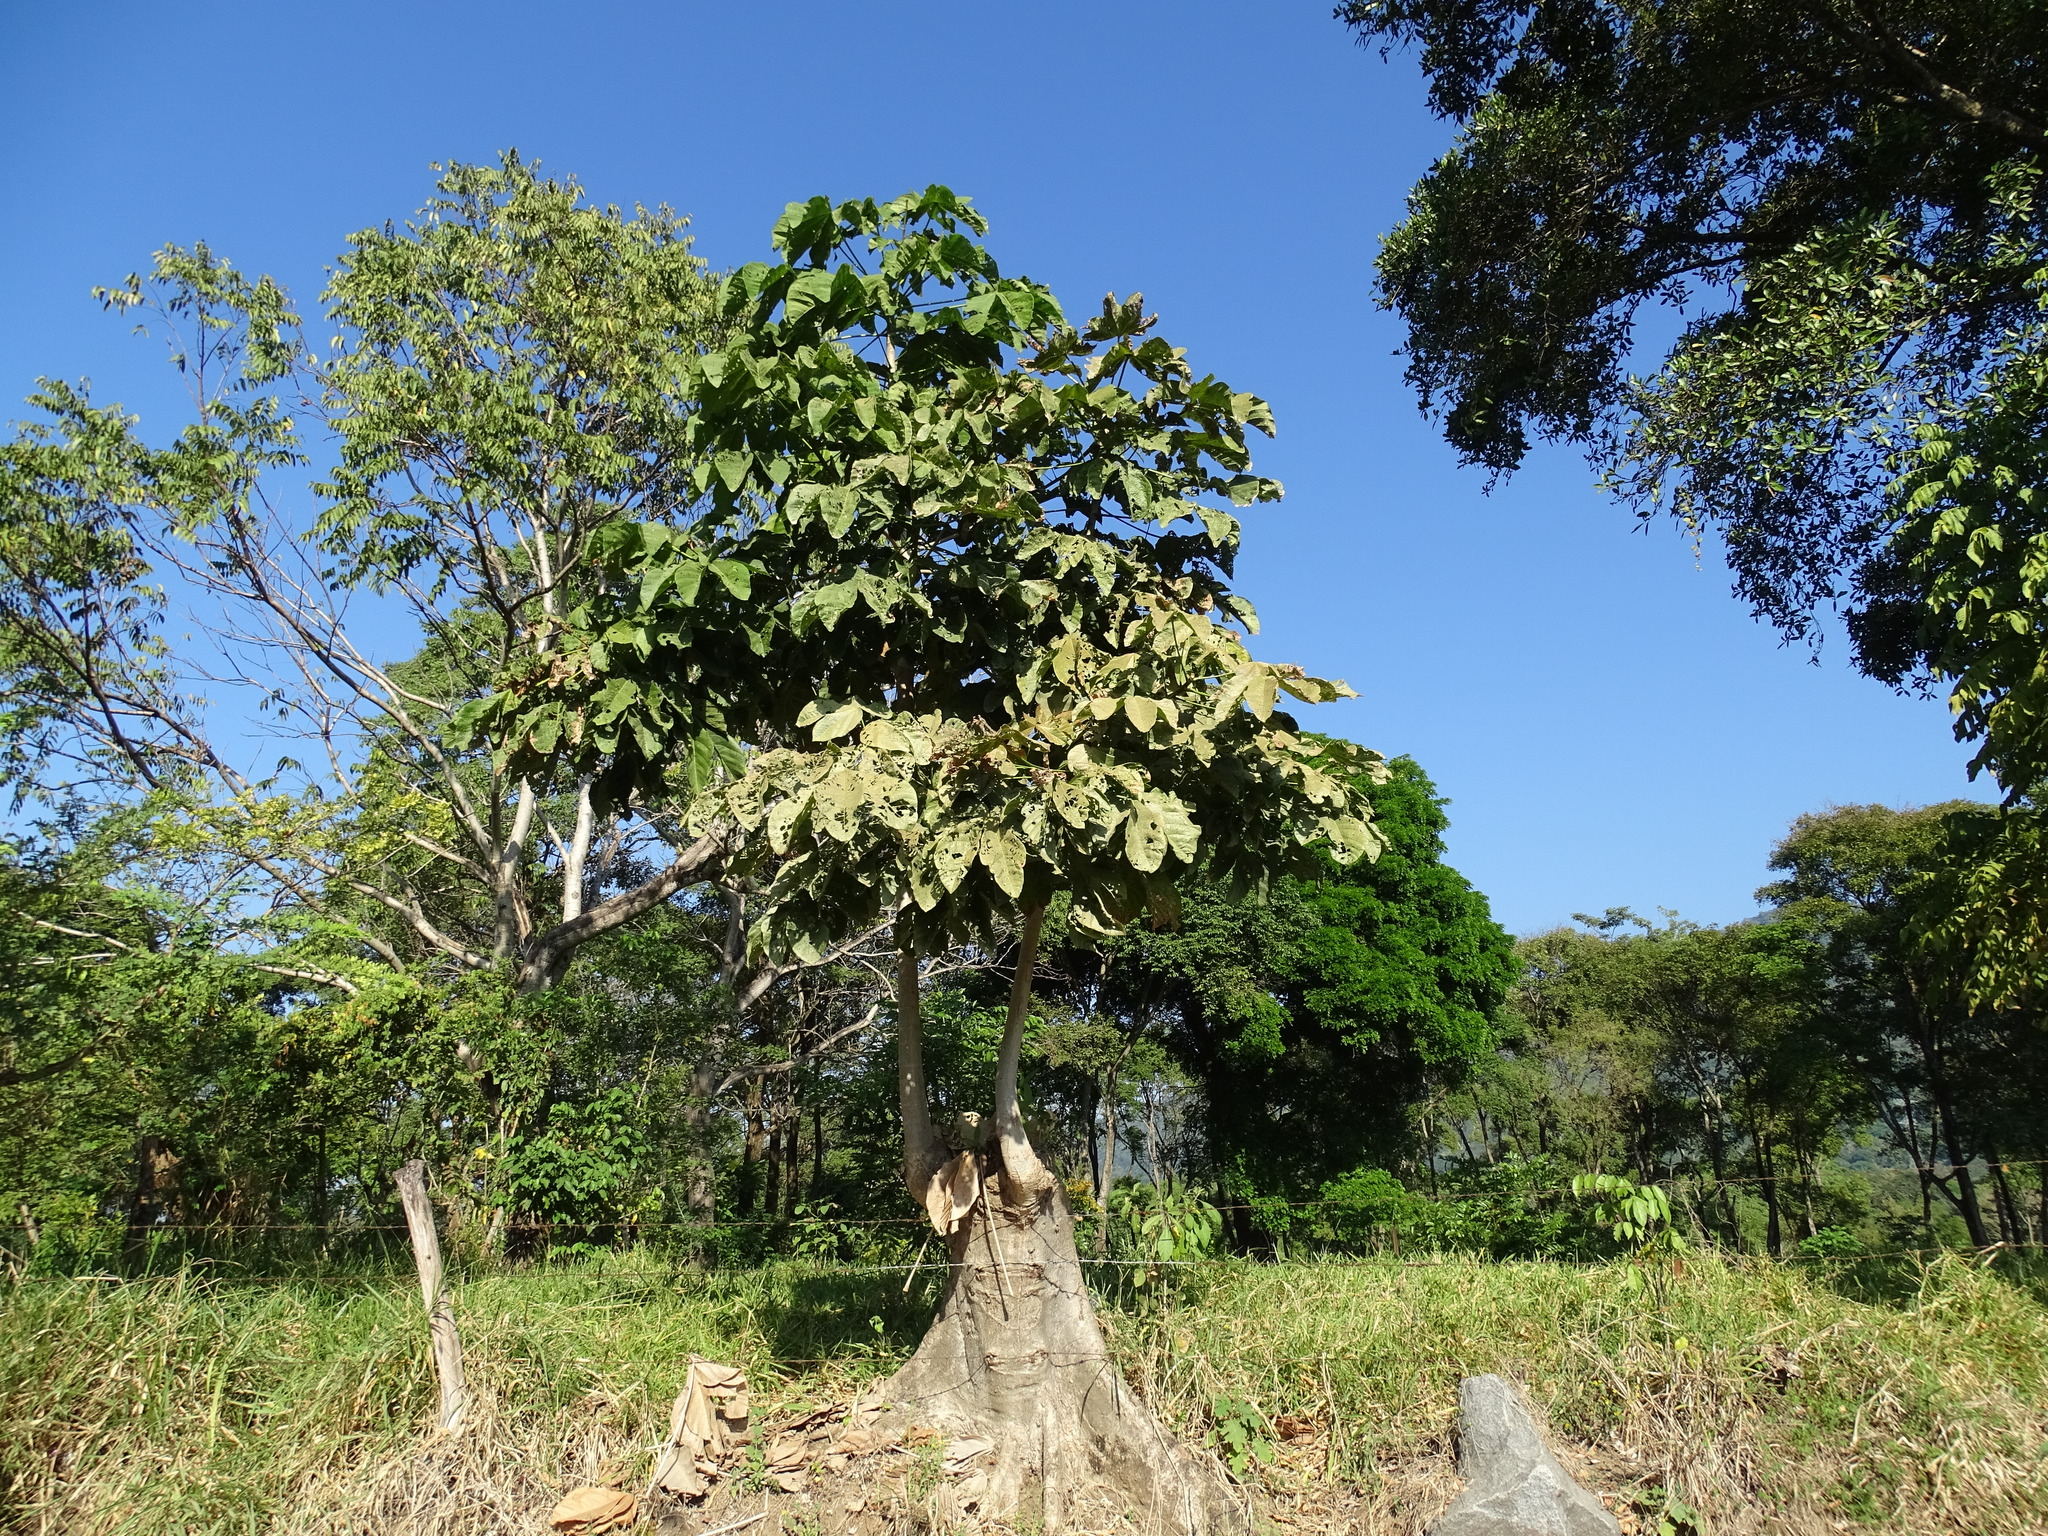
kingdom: Plantae
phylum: Tracheophyta
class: Magnoliopsida
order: Malvales
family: Malvaceae
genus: Sterculia
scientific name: Sterculia apetala
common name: Panama tree
